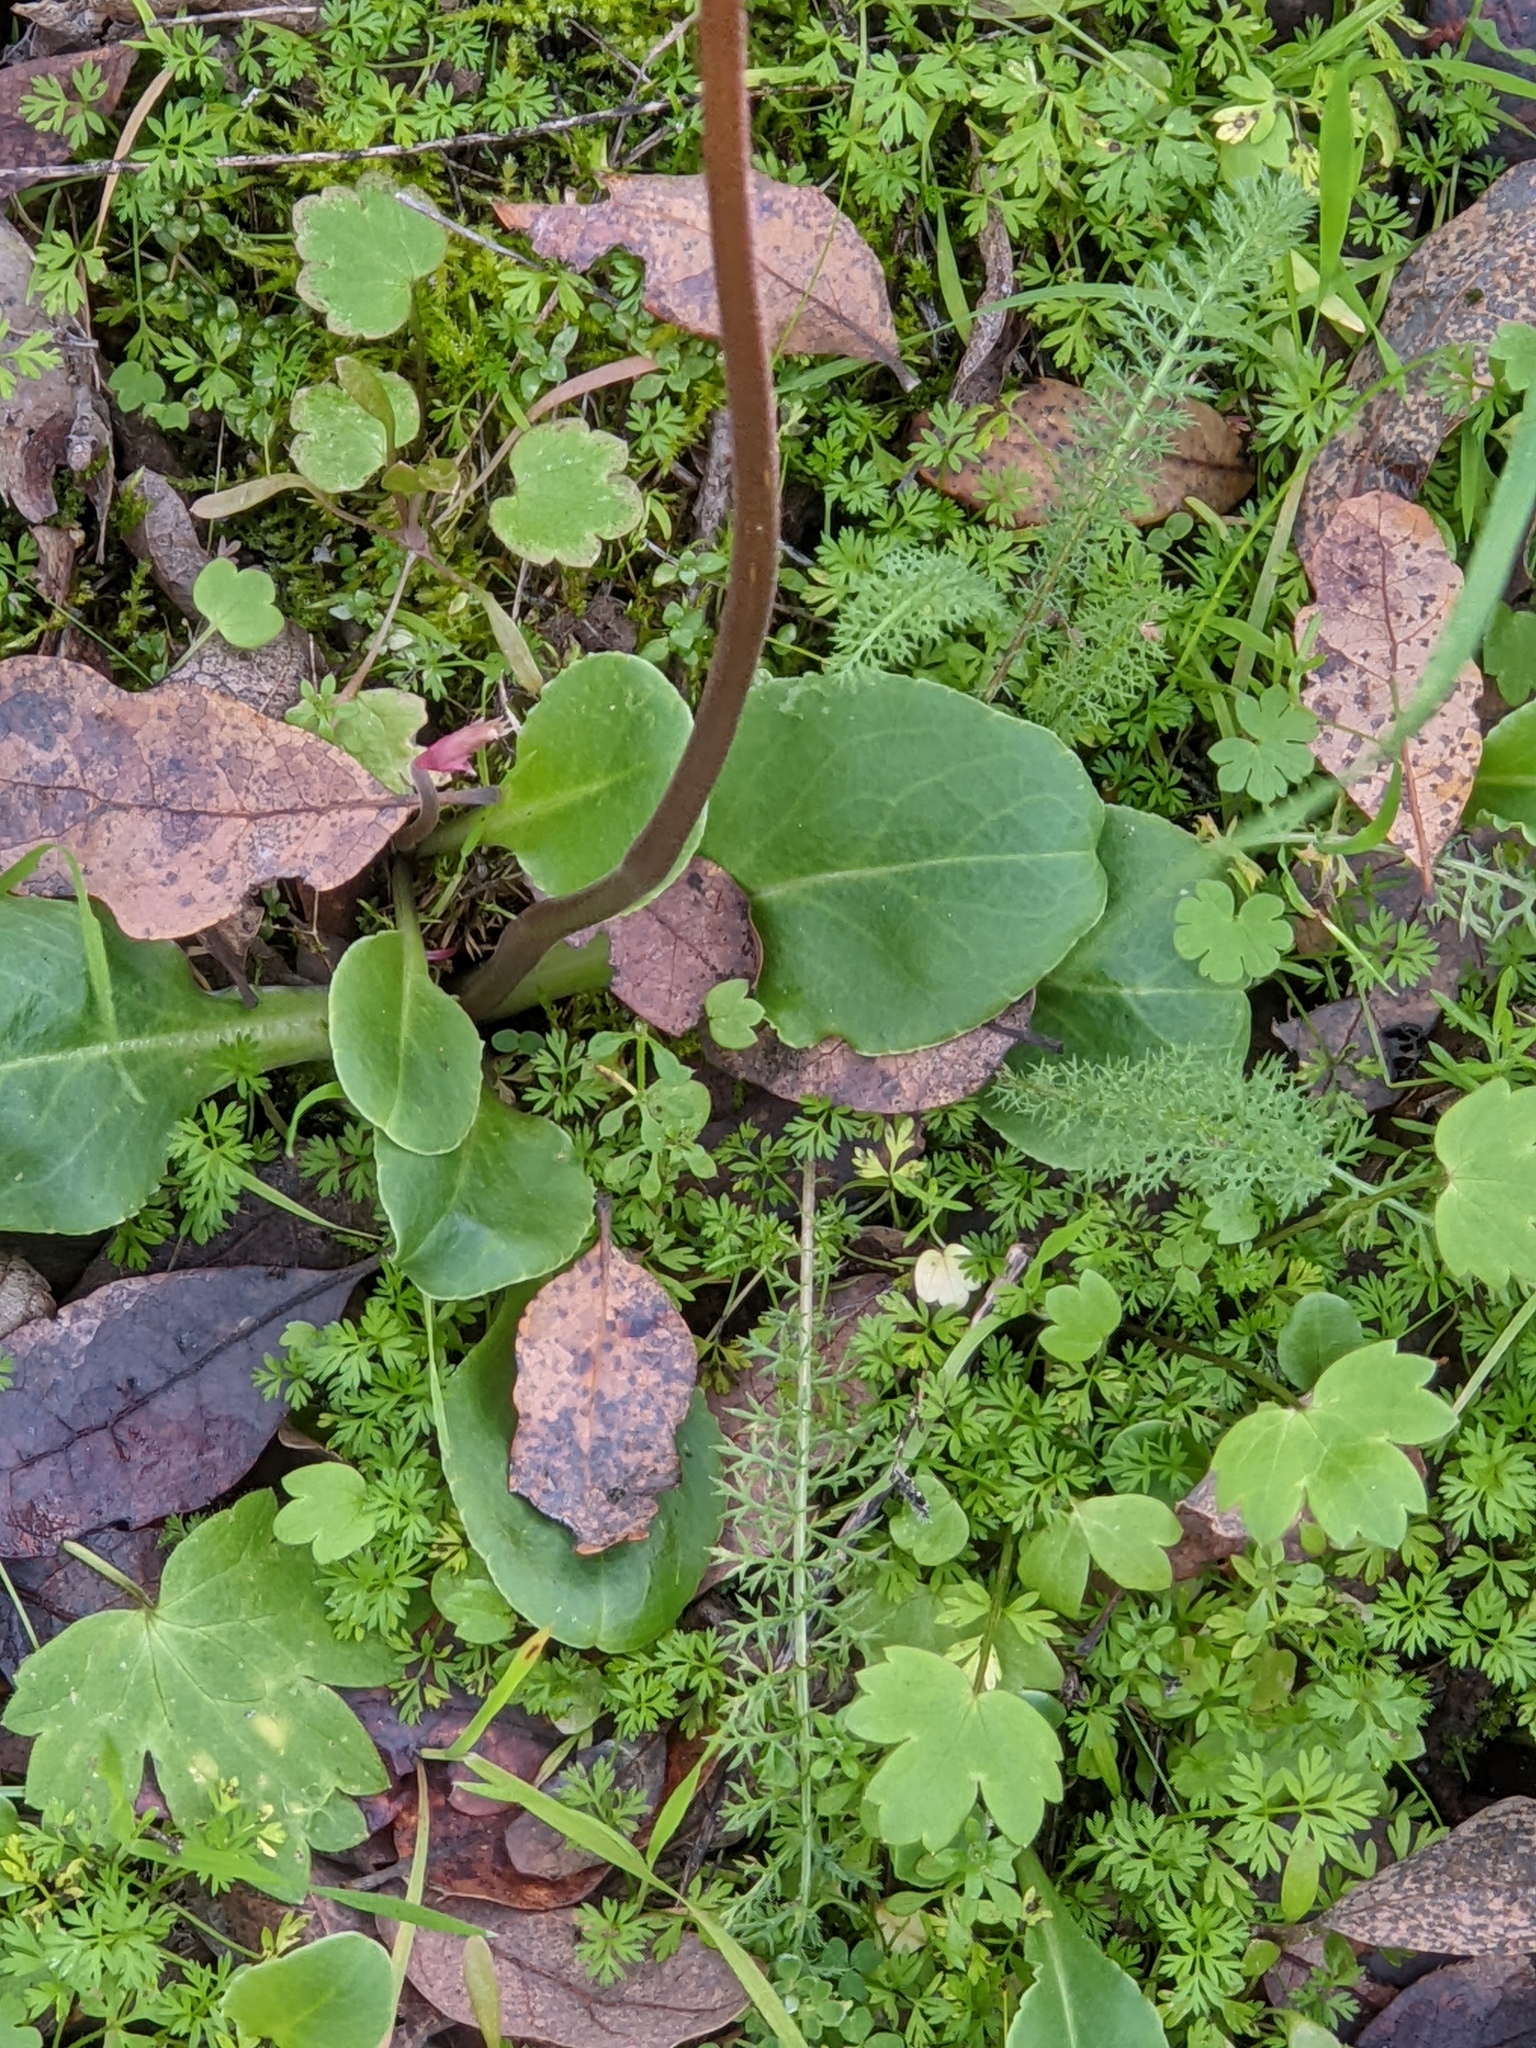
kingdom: Plantae
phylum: Tracheophyta
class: Magnoliopsida
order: Ericales
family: Primulaceae
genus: Dodecatheon
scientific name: Dodecatheon hendersonii
